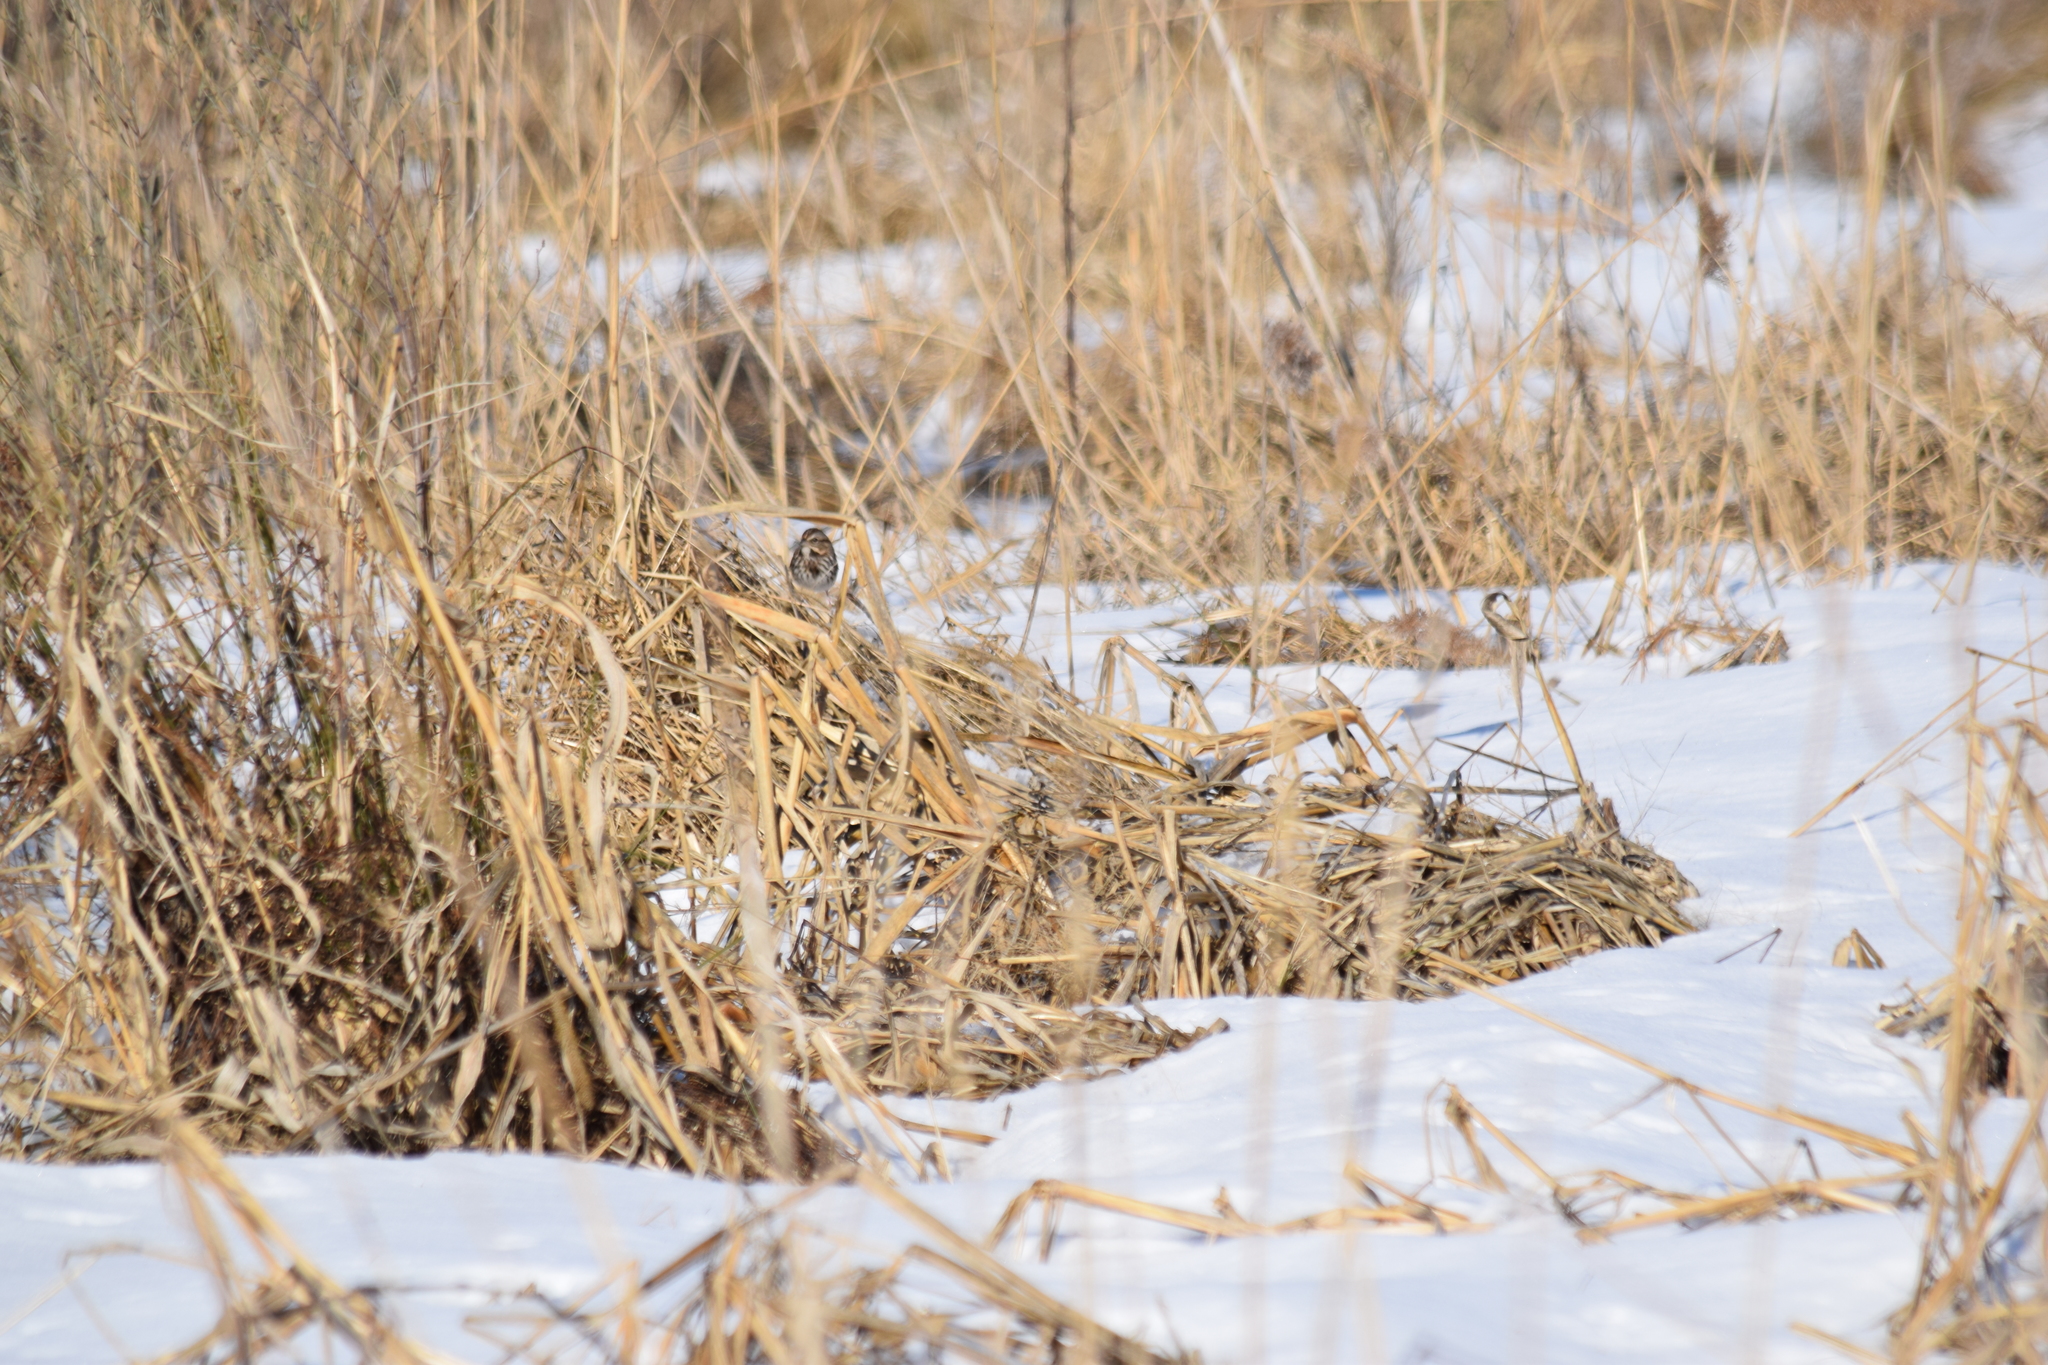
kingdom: Animalia
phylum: Chordata
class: Aves
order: Passeriformes
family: Passerellidae
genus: Melospiza
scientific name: Melospiza melodia
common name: Song sparrow
